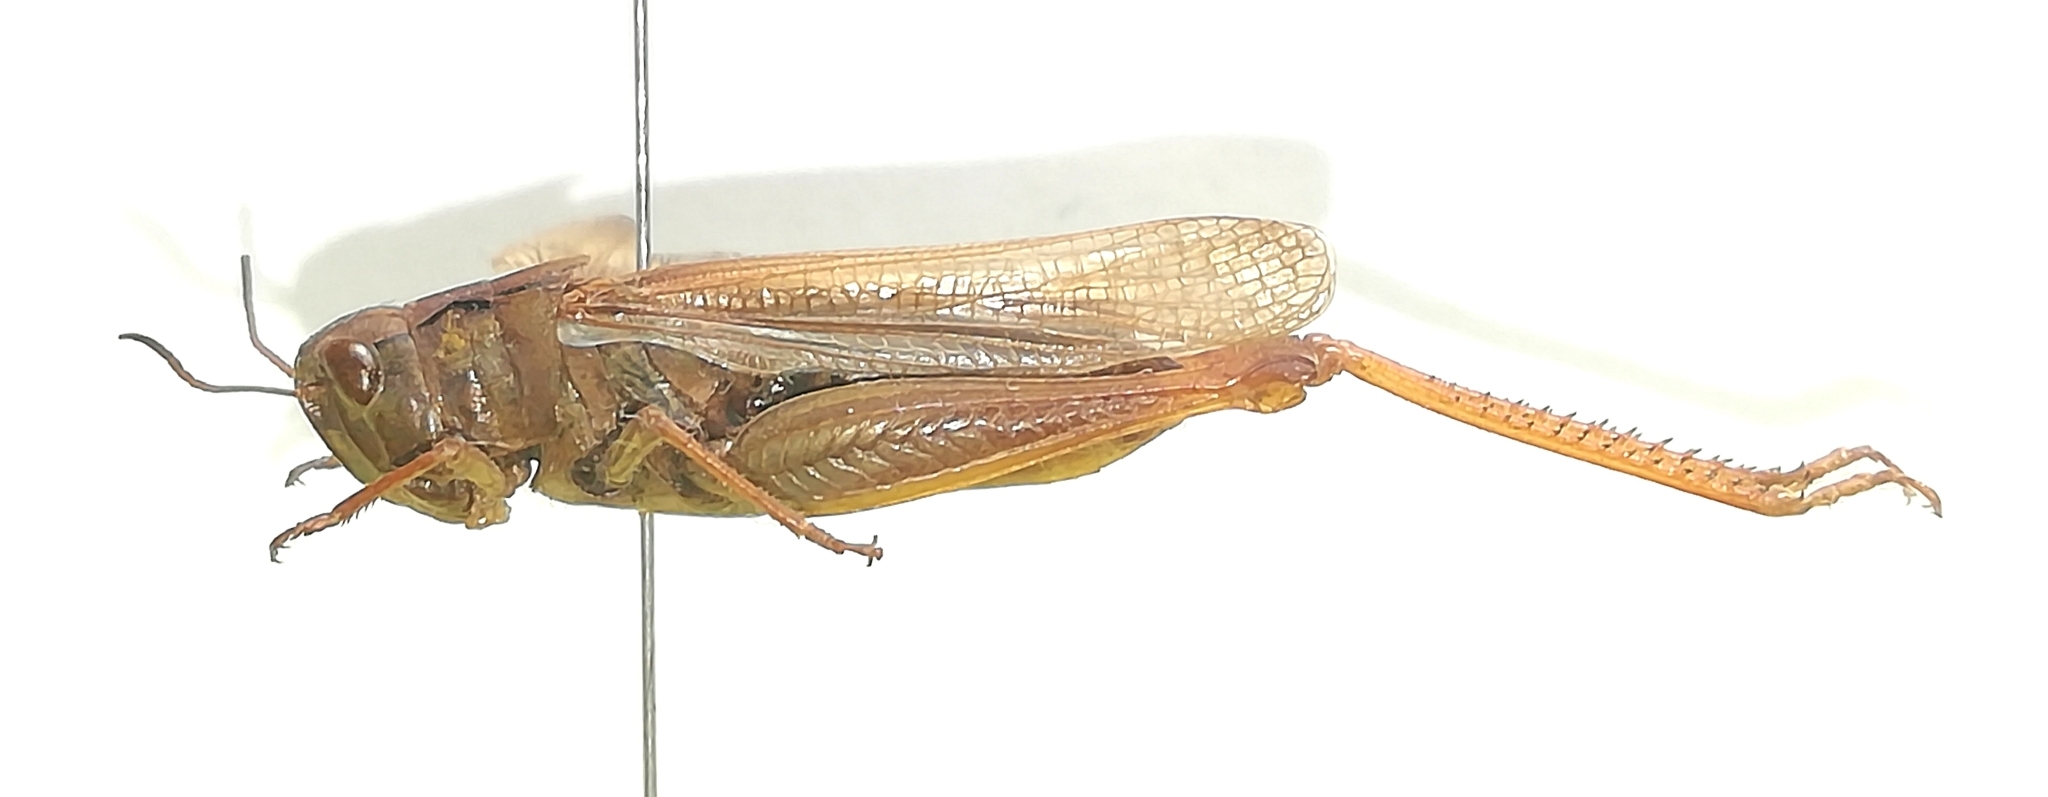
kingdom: Animalia
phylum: Arthropoda
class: Insecta
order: Orthoptera
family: Acrididae
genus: Stauroderus
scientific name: Stauroderus scalaris
